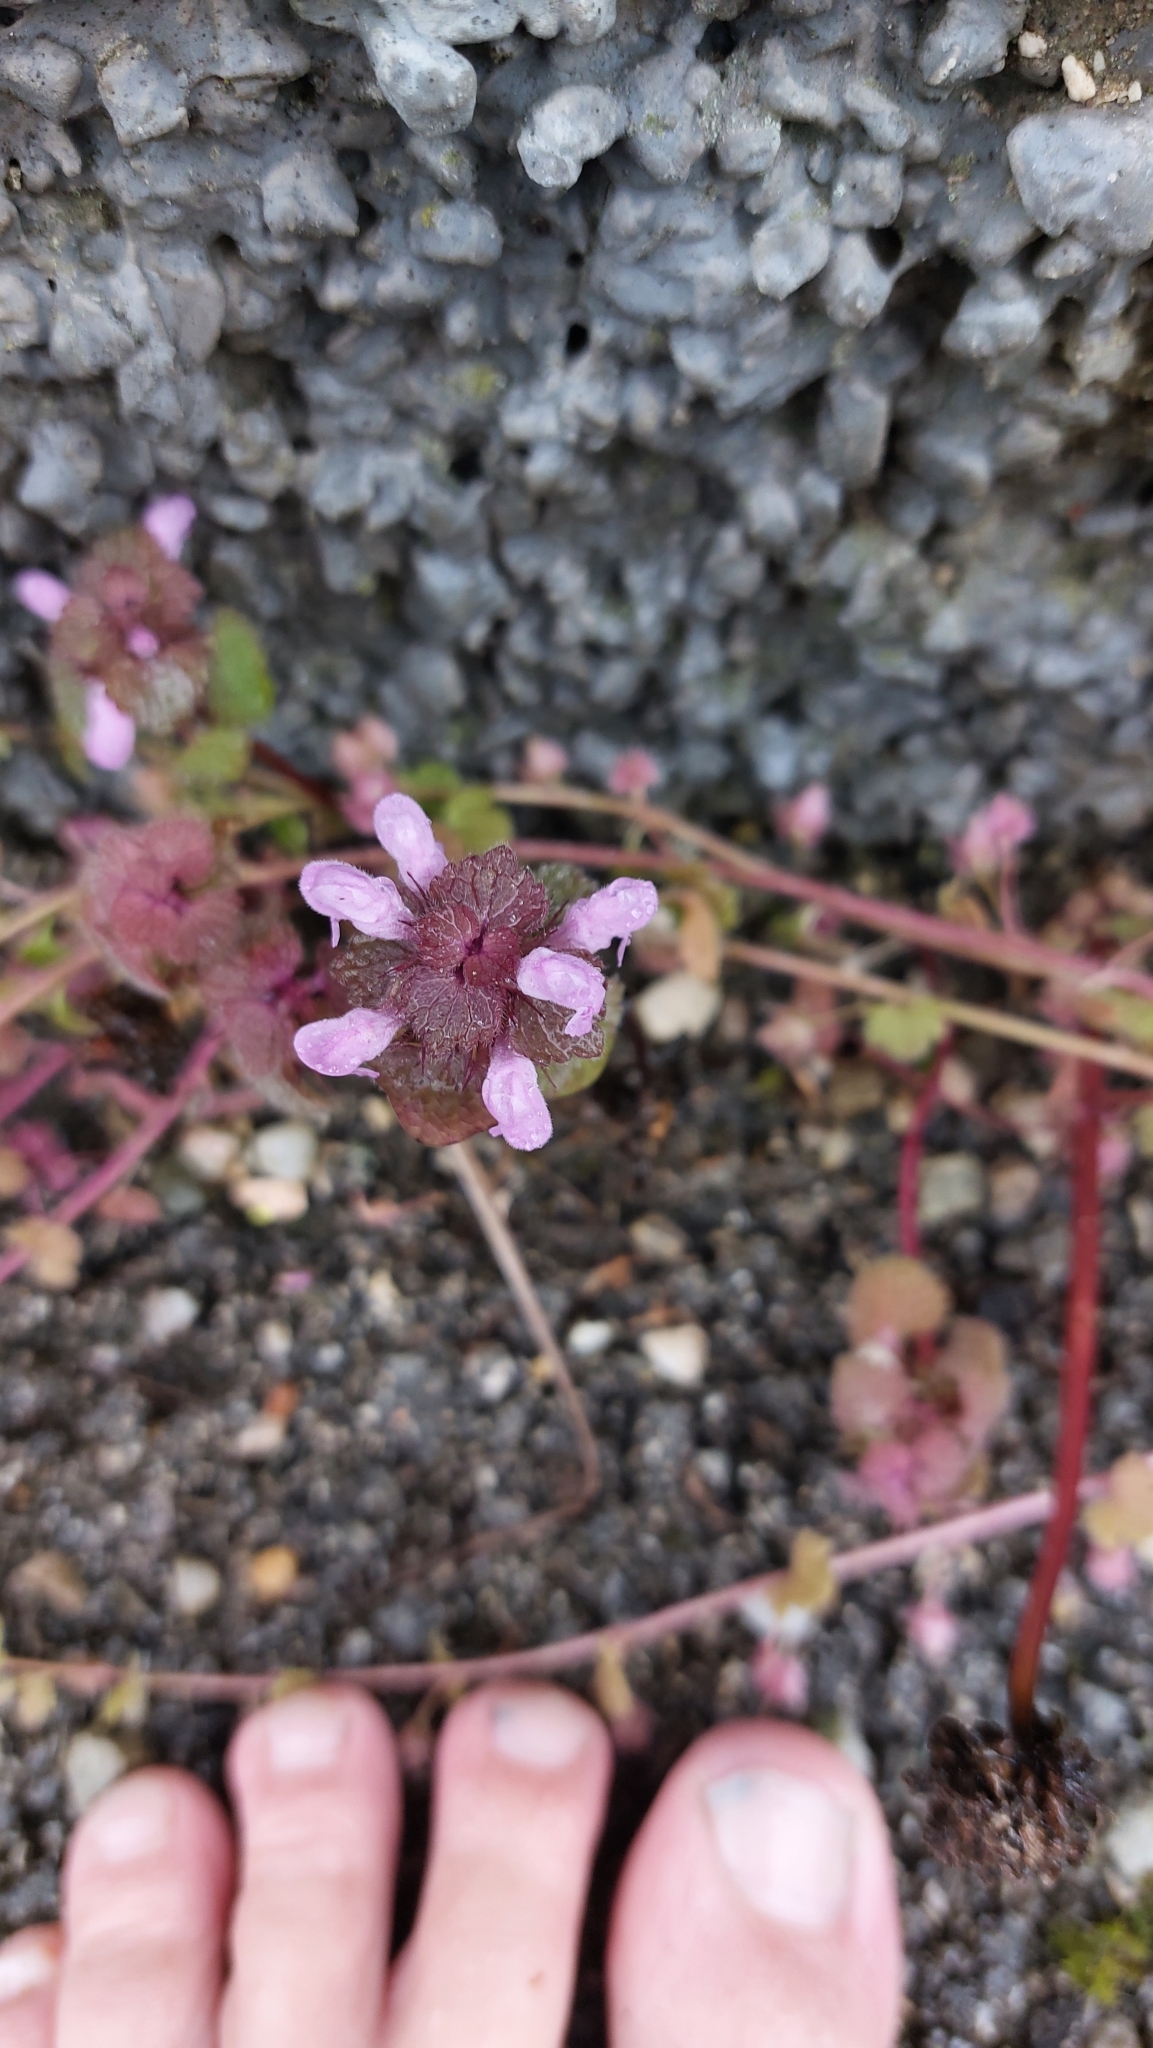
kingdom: Plantae
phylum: Tracheophyta
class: Magnoliopsida
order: Lamiales
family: Lamiaceae
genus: Lamium
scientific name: Lamium purpureum
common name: Red dead-nettle
